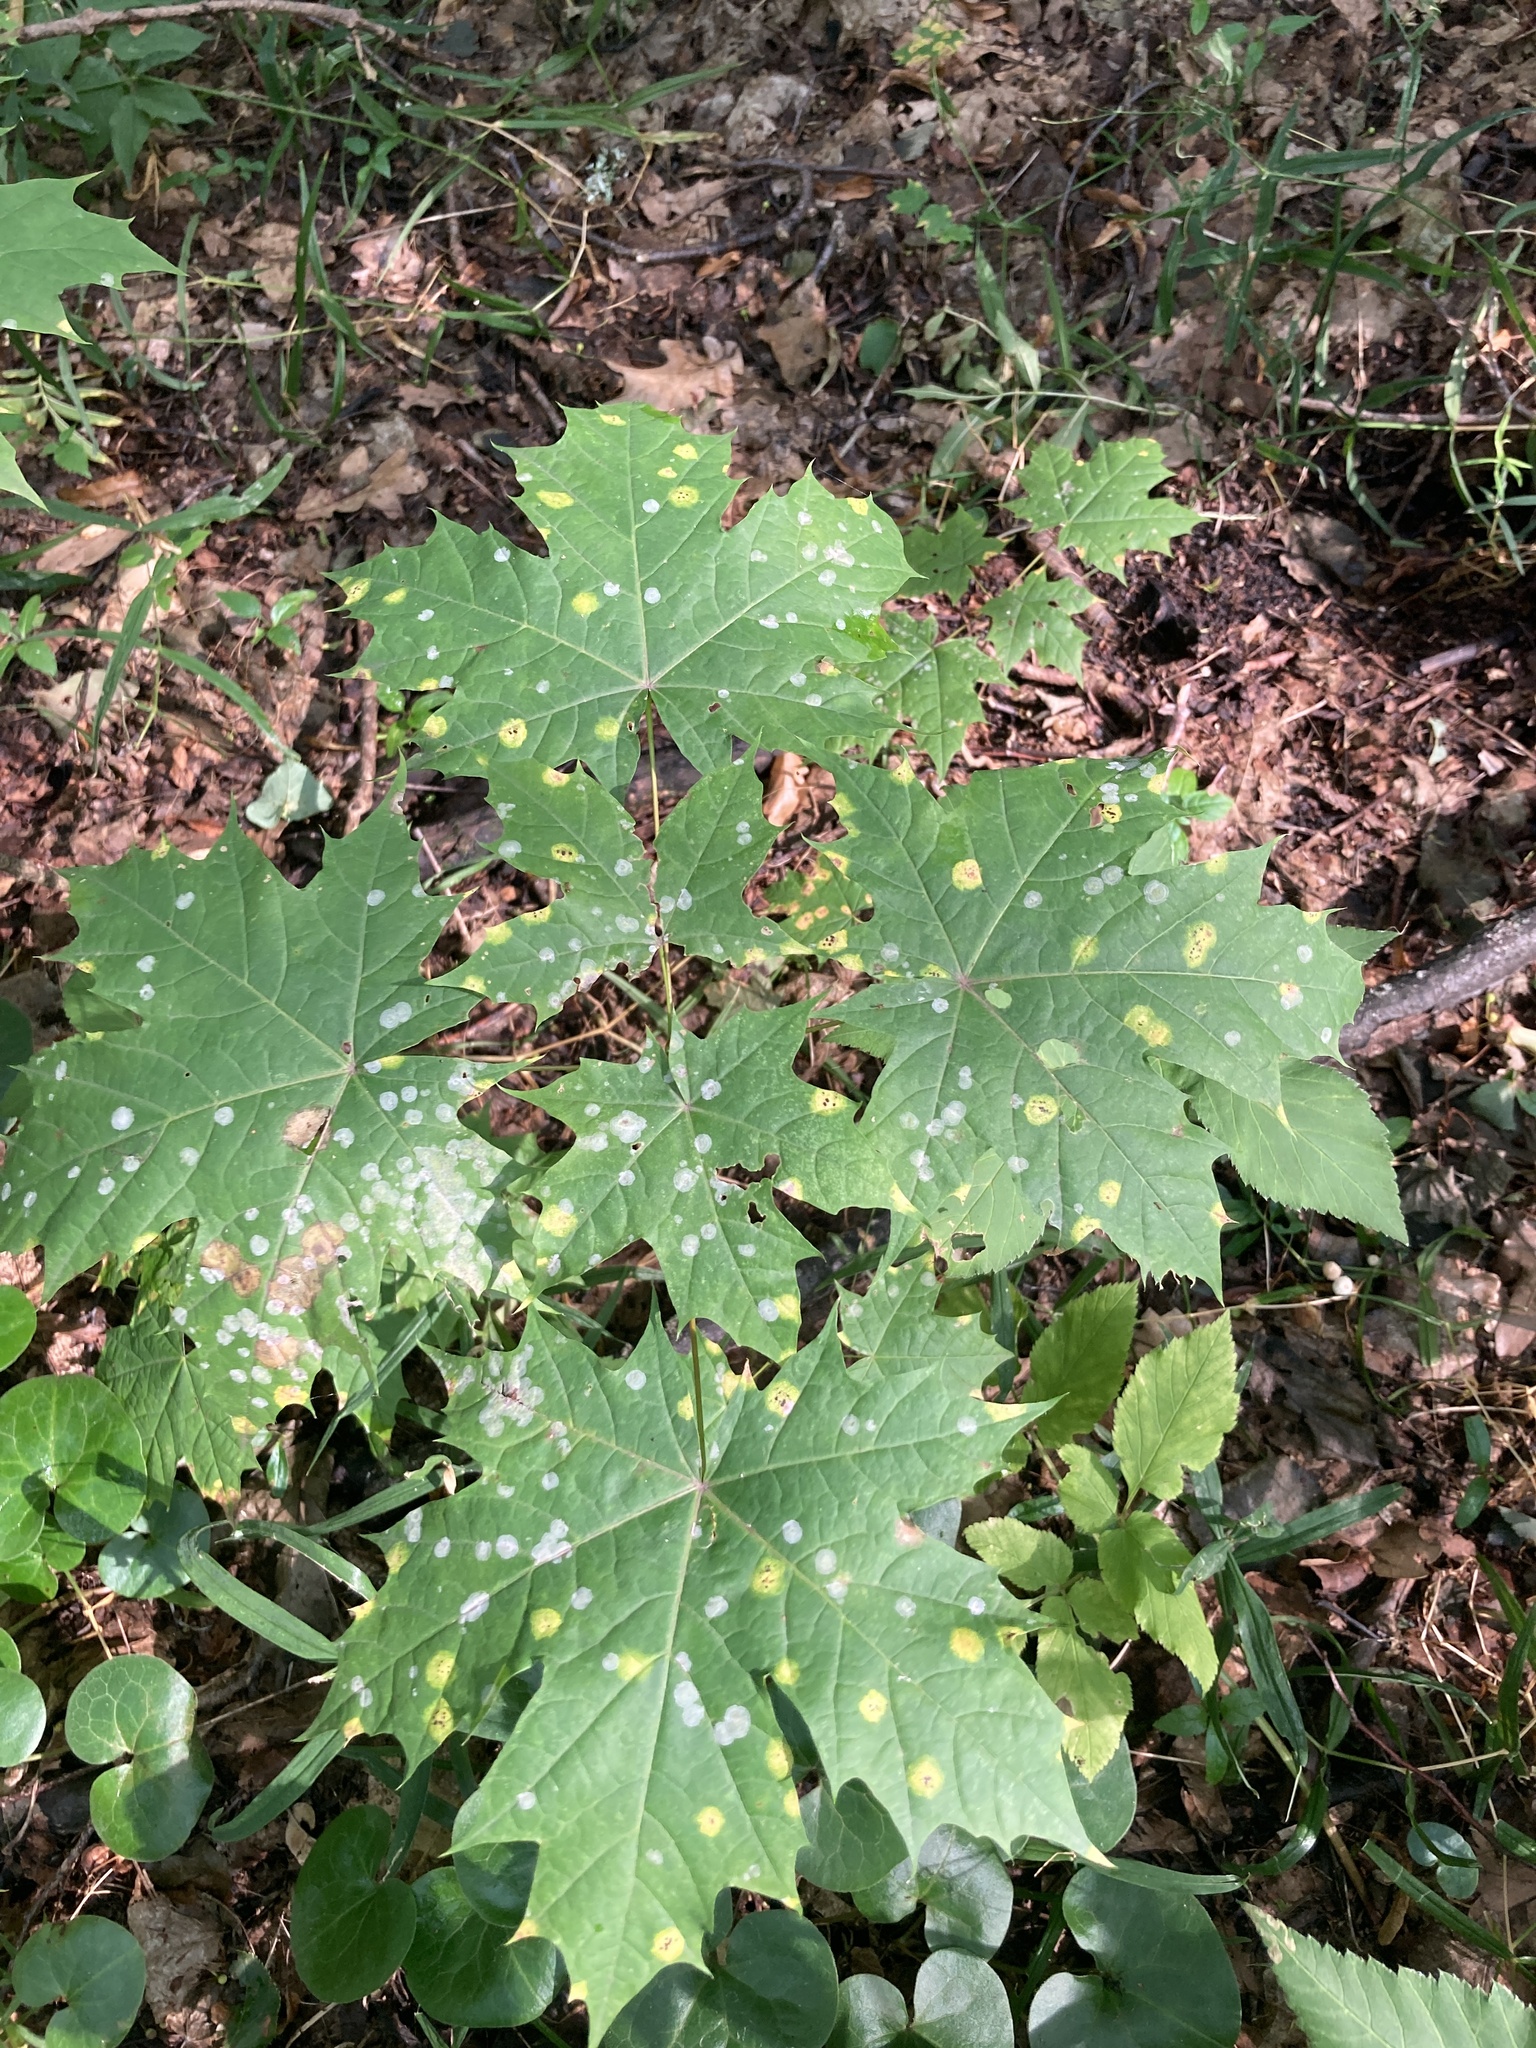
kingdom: Plantae
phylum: Tracheophyta
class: Magnoliopsida
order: Sapindales
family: Sapindaceae
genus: Acer
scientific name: Acer platanoides
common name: Norway maple
